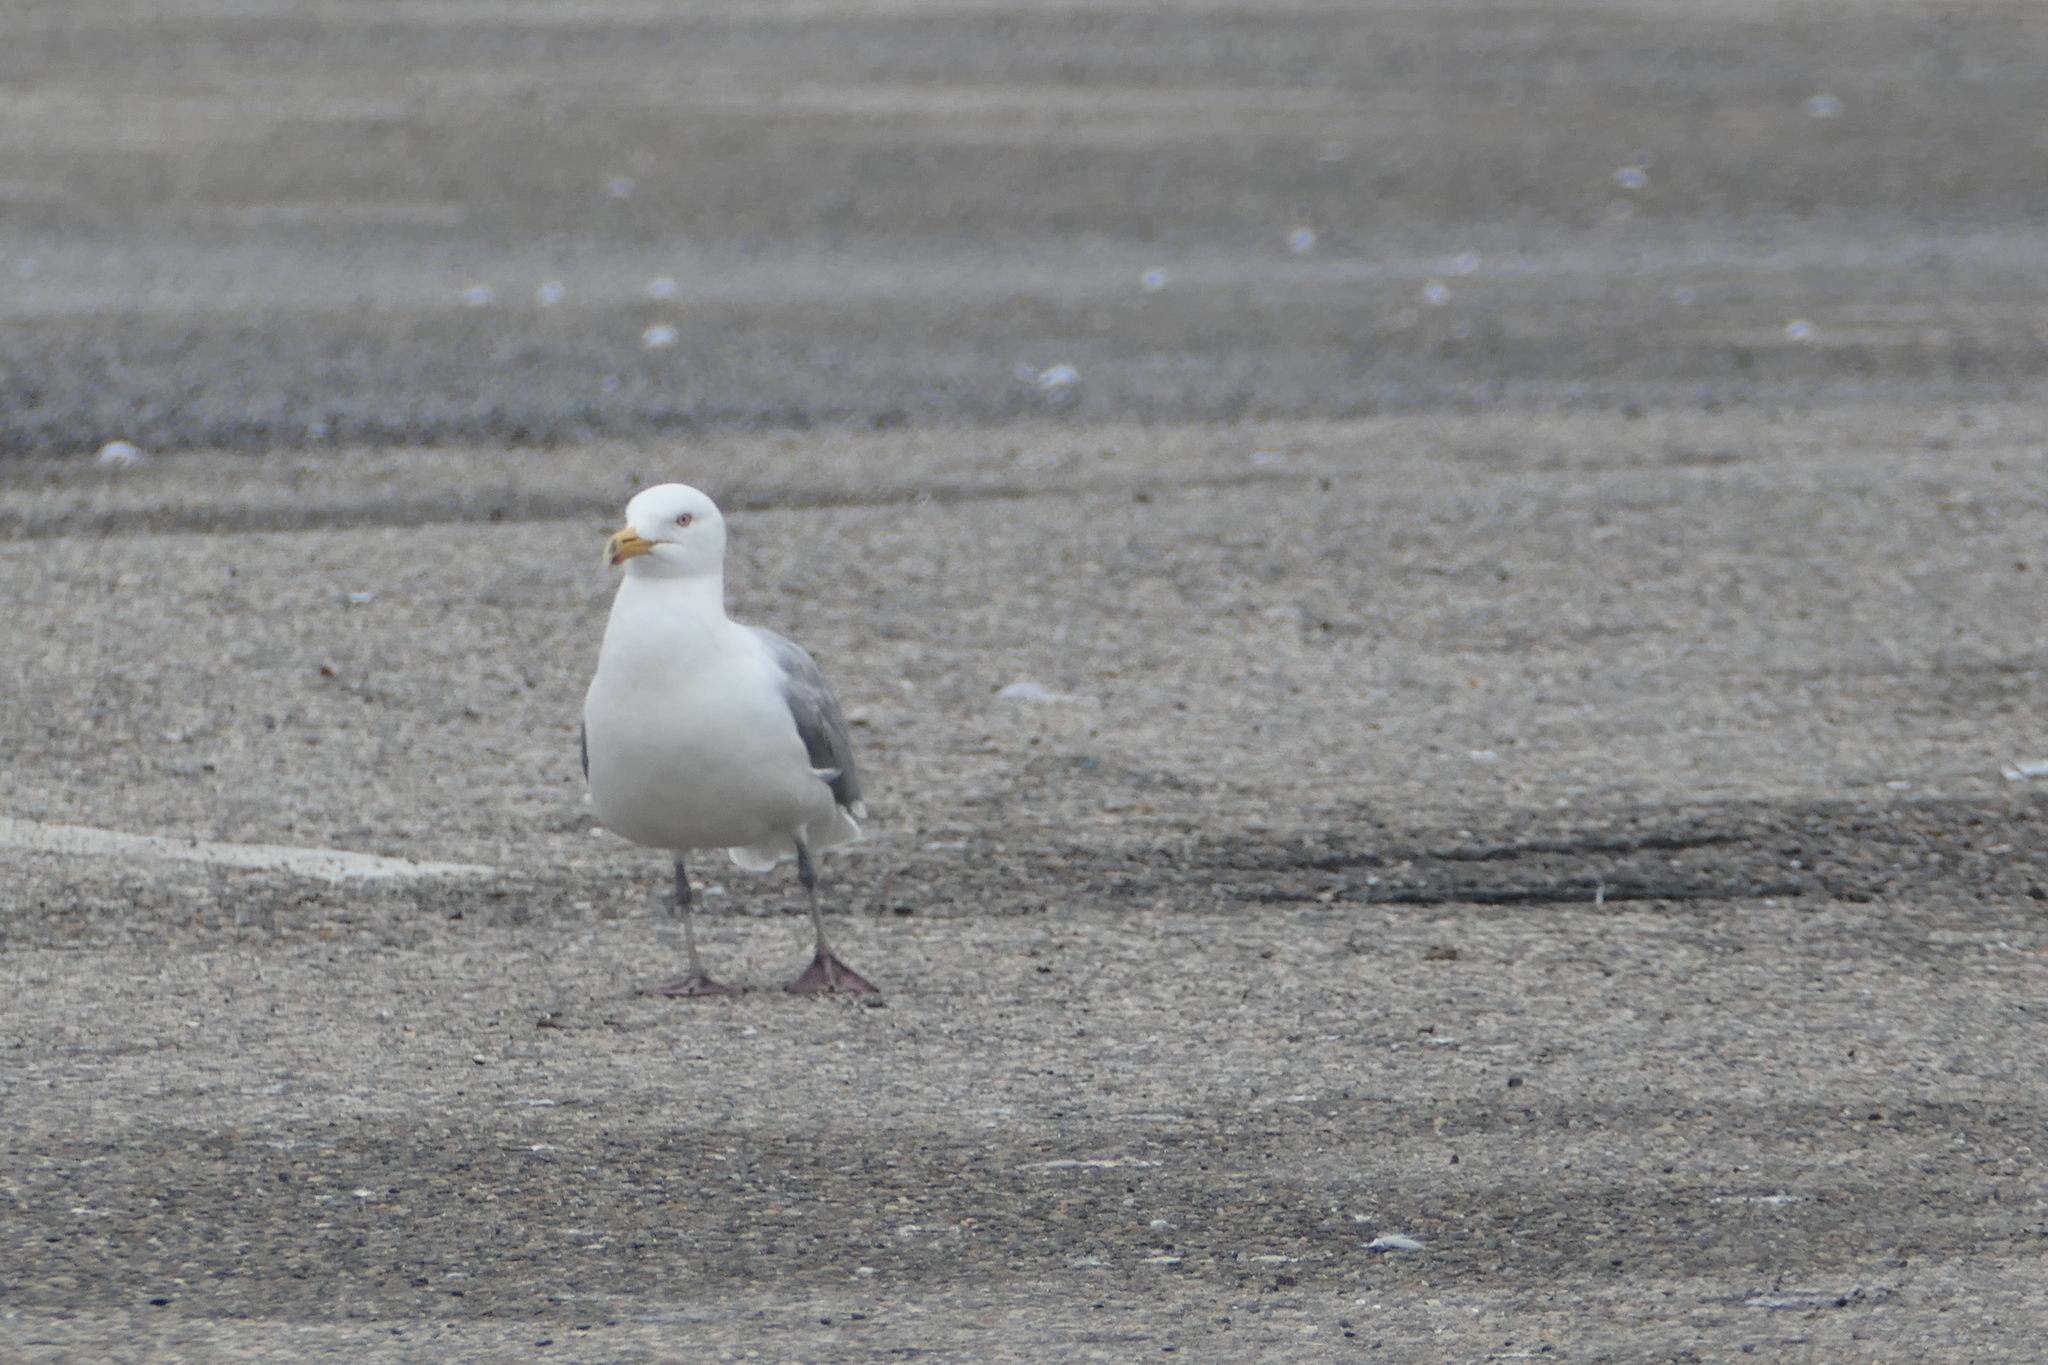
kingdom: Animalia
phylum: Chordata
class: Aves
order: Charadriiformes
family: Laridae
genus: Larus
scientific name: Larus argentatus
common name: Herring gull
